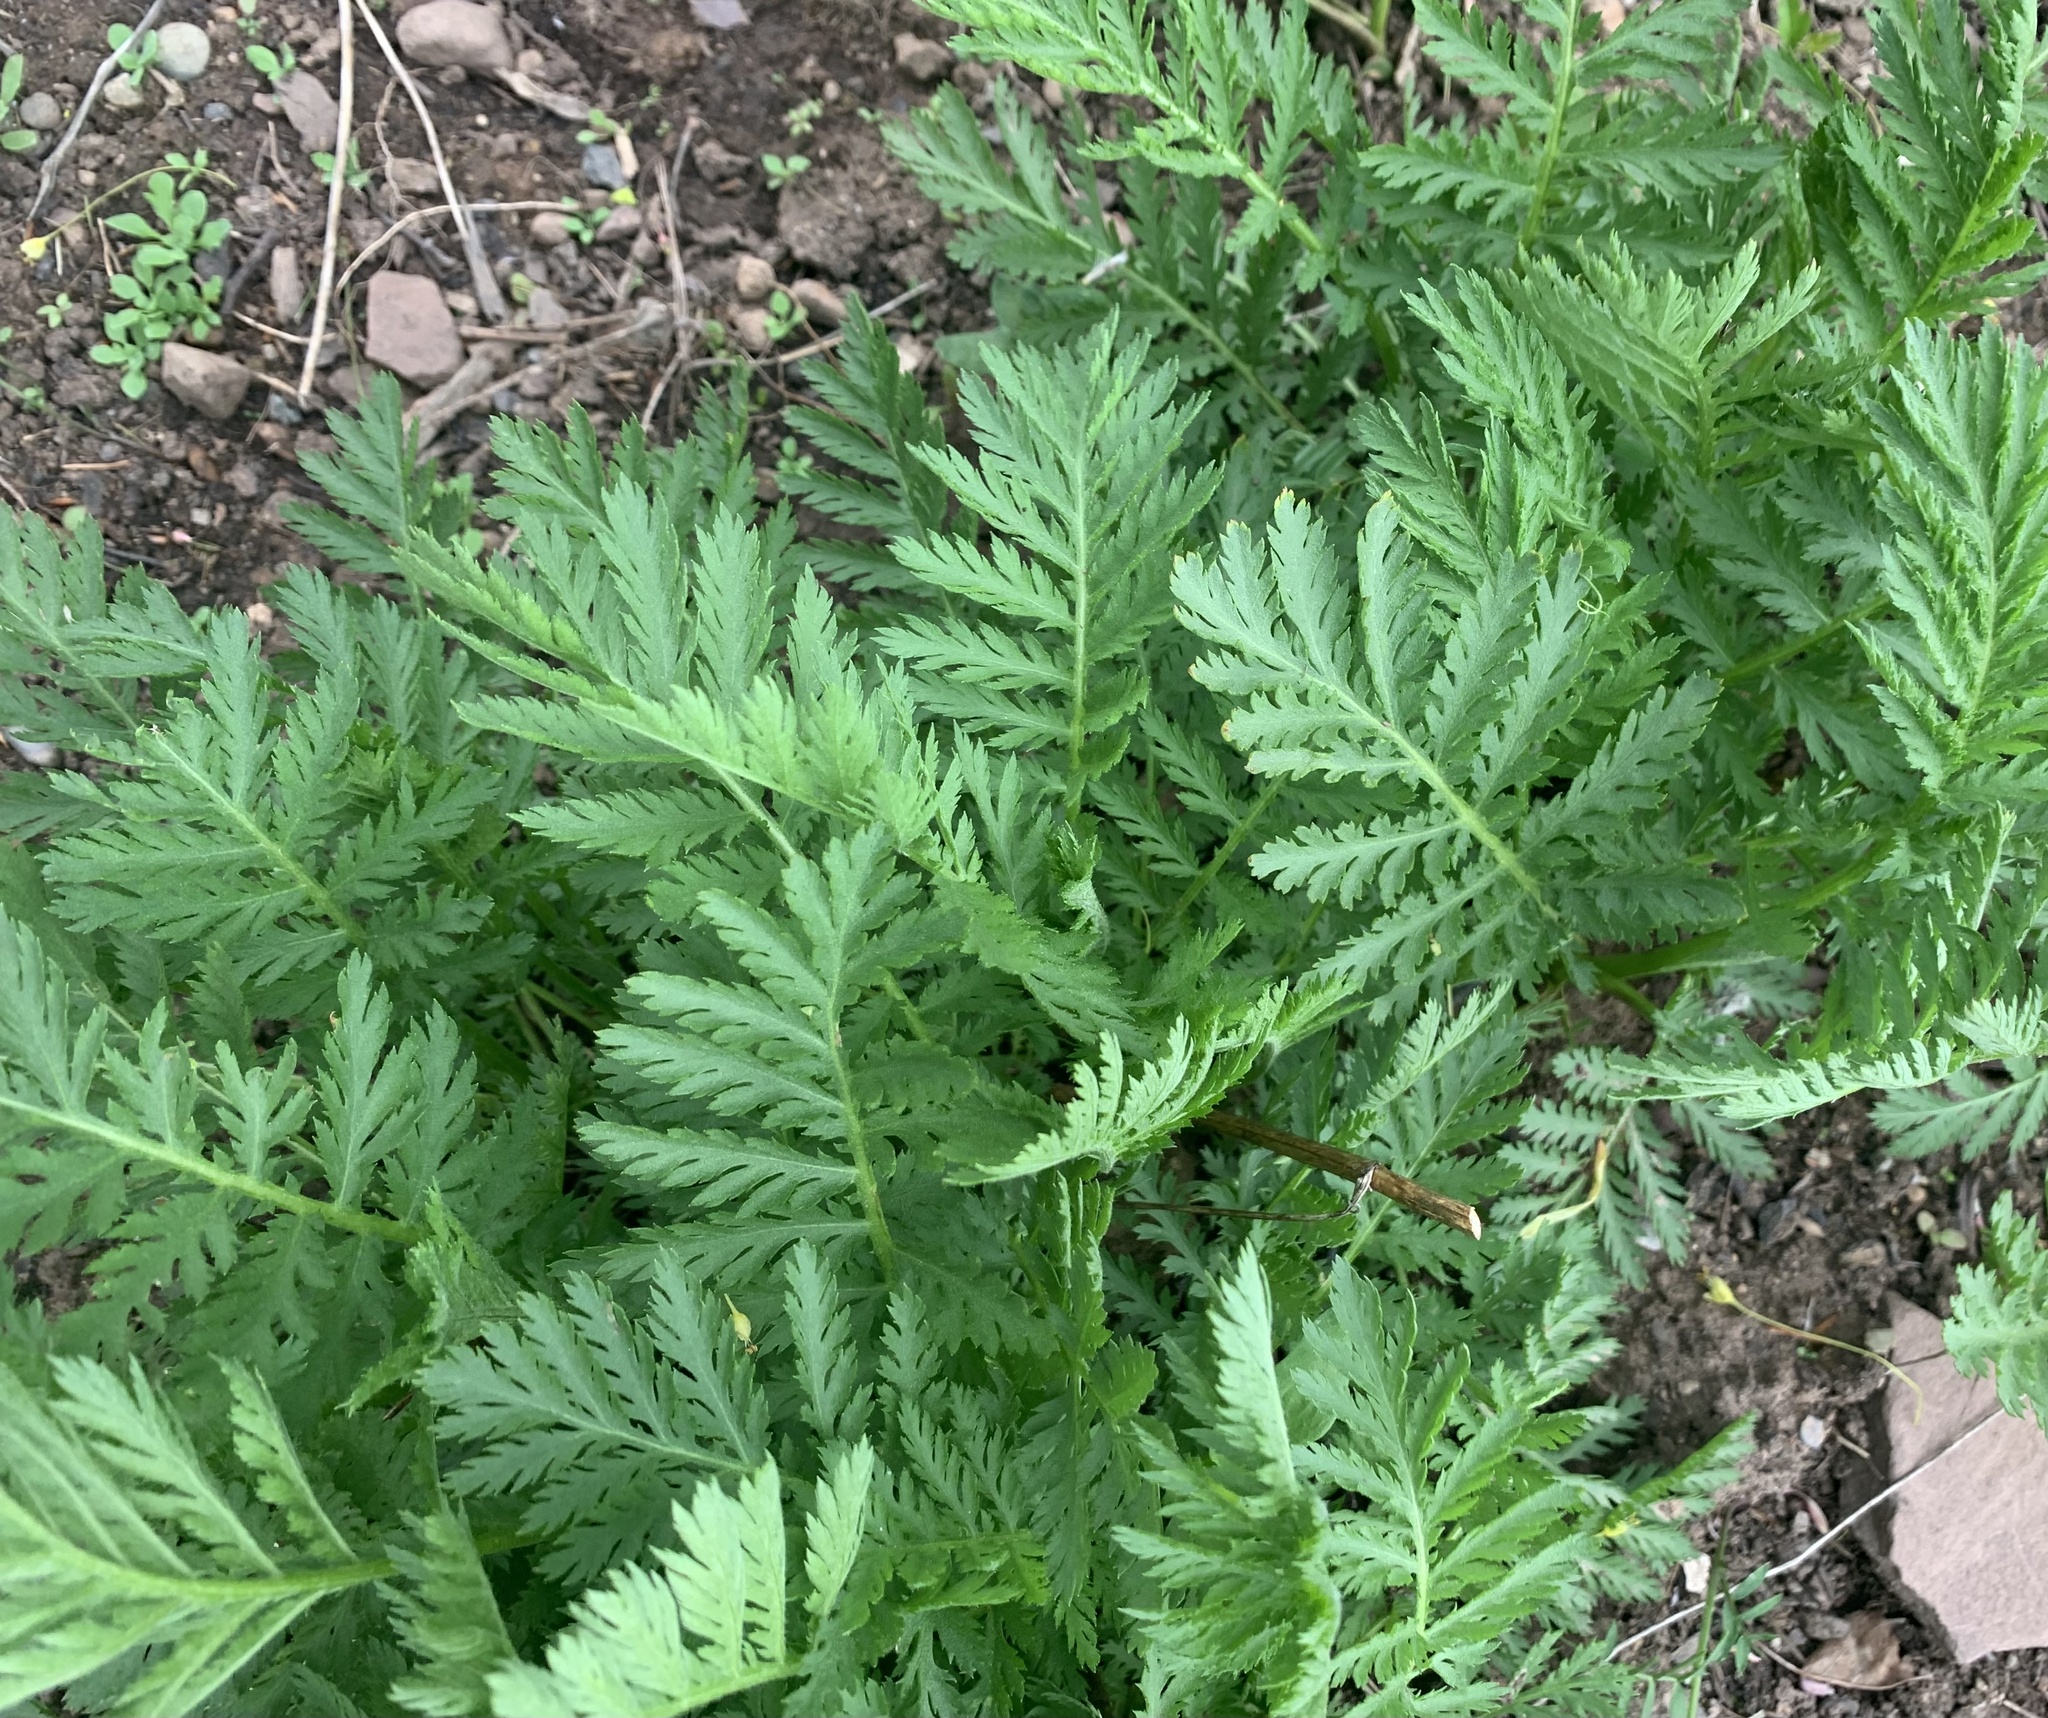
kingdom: Plantae
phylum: Tracheophyta
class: Magnoliopsida
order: Asterales
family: Asteraceae
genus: Tanacetum
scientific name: Tanacetum vulgare
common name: Common tansy
